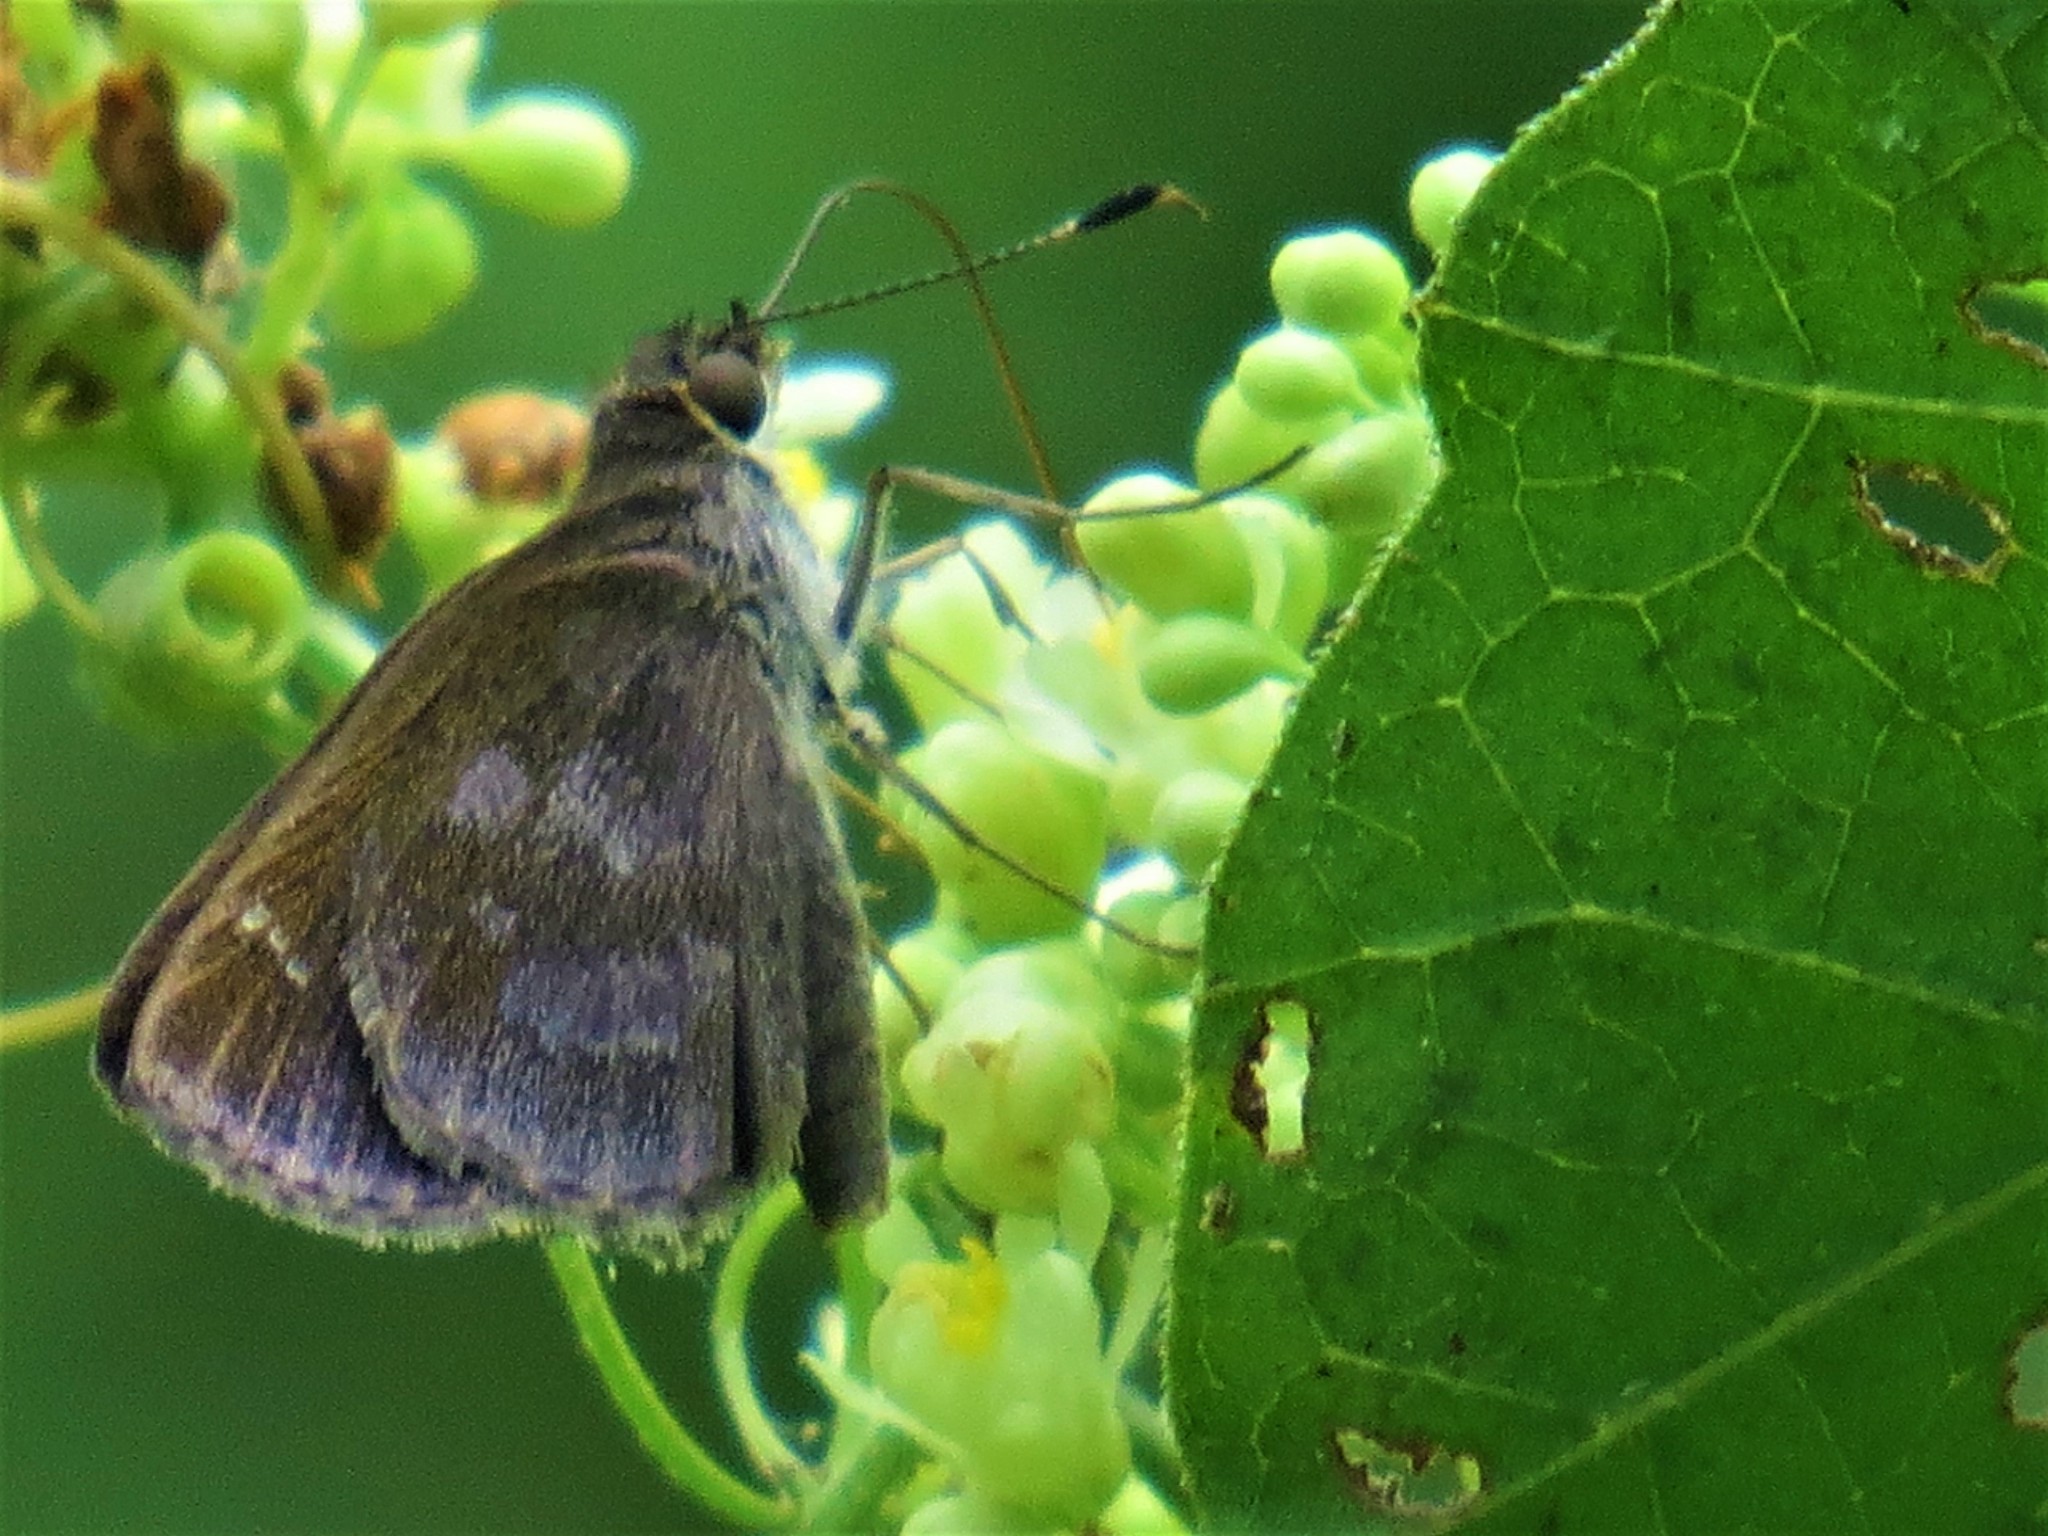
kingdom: Animalia
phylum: Arthropoda
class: Insecta
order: Lepidoptera
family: Hesperiidae
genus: Cymaenes
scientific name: Cymaenes
